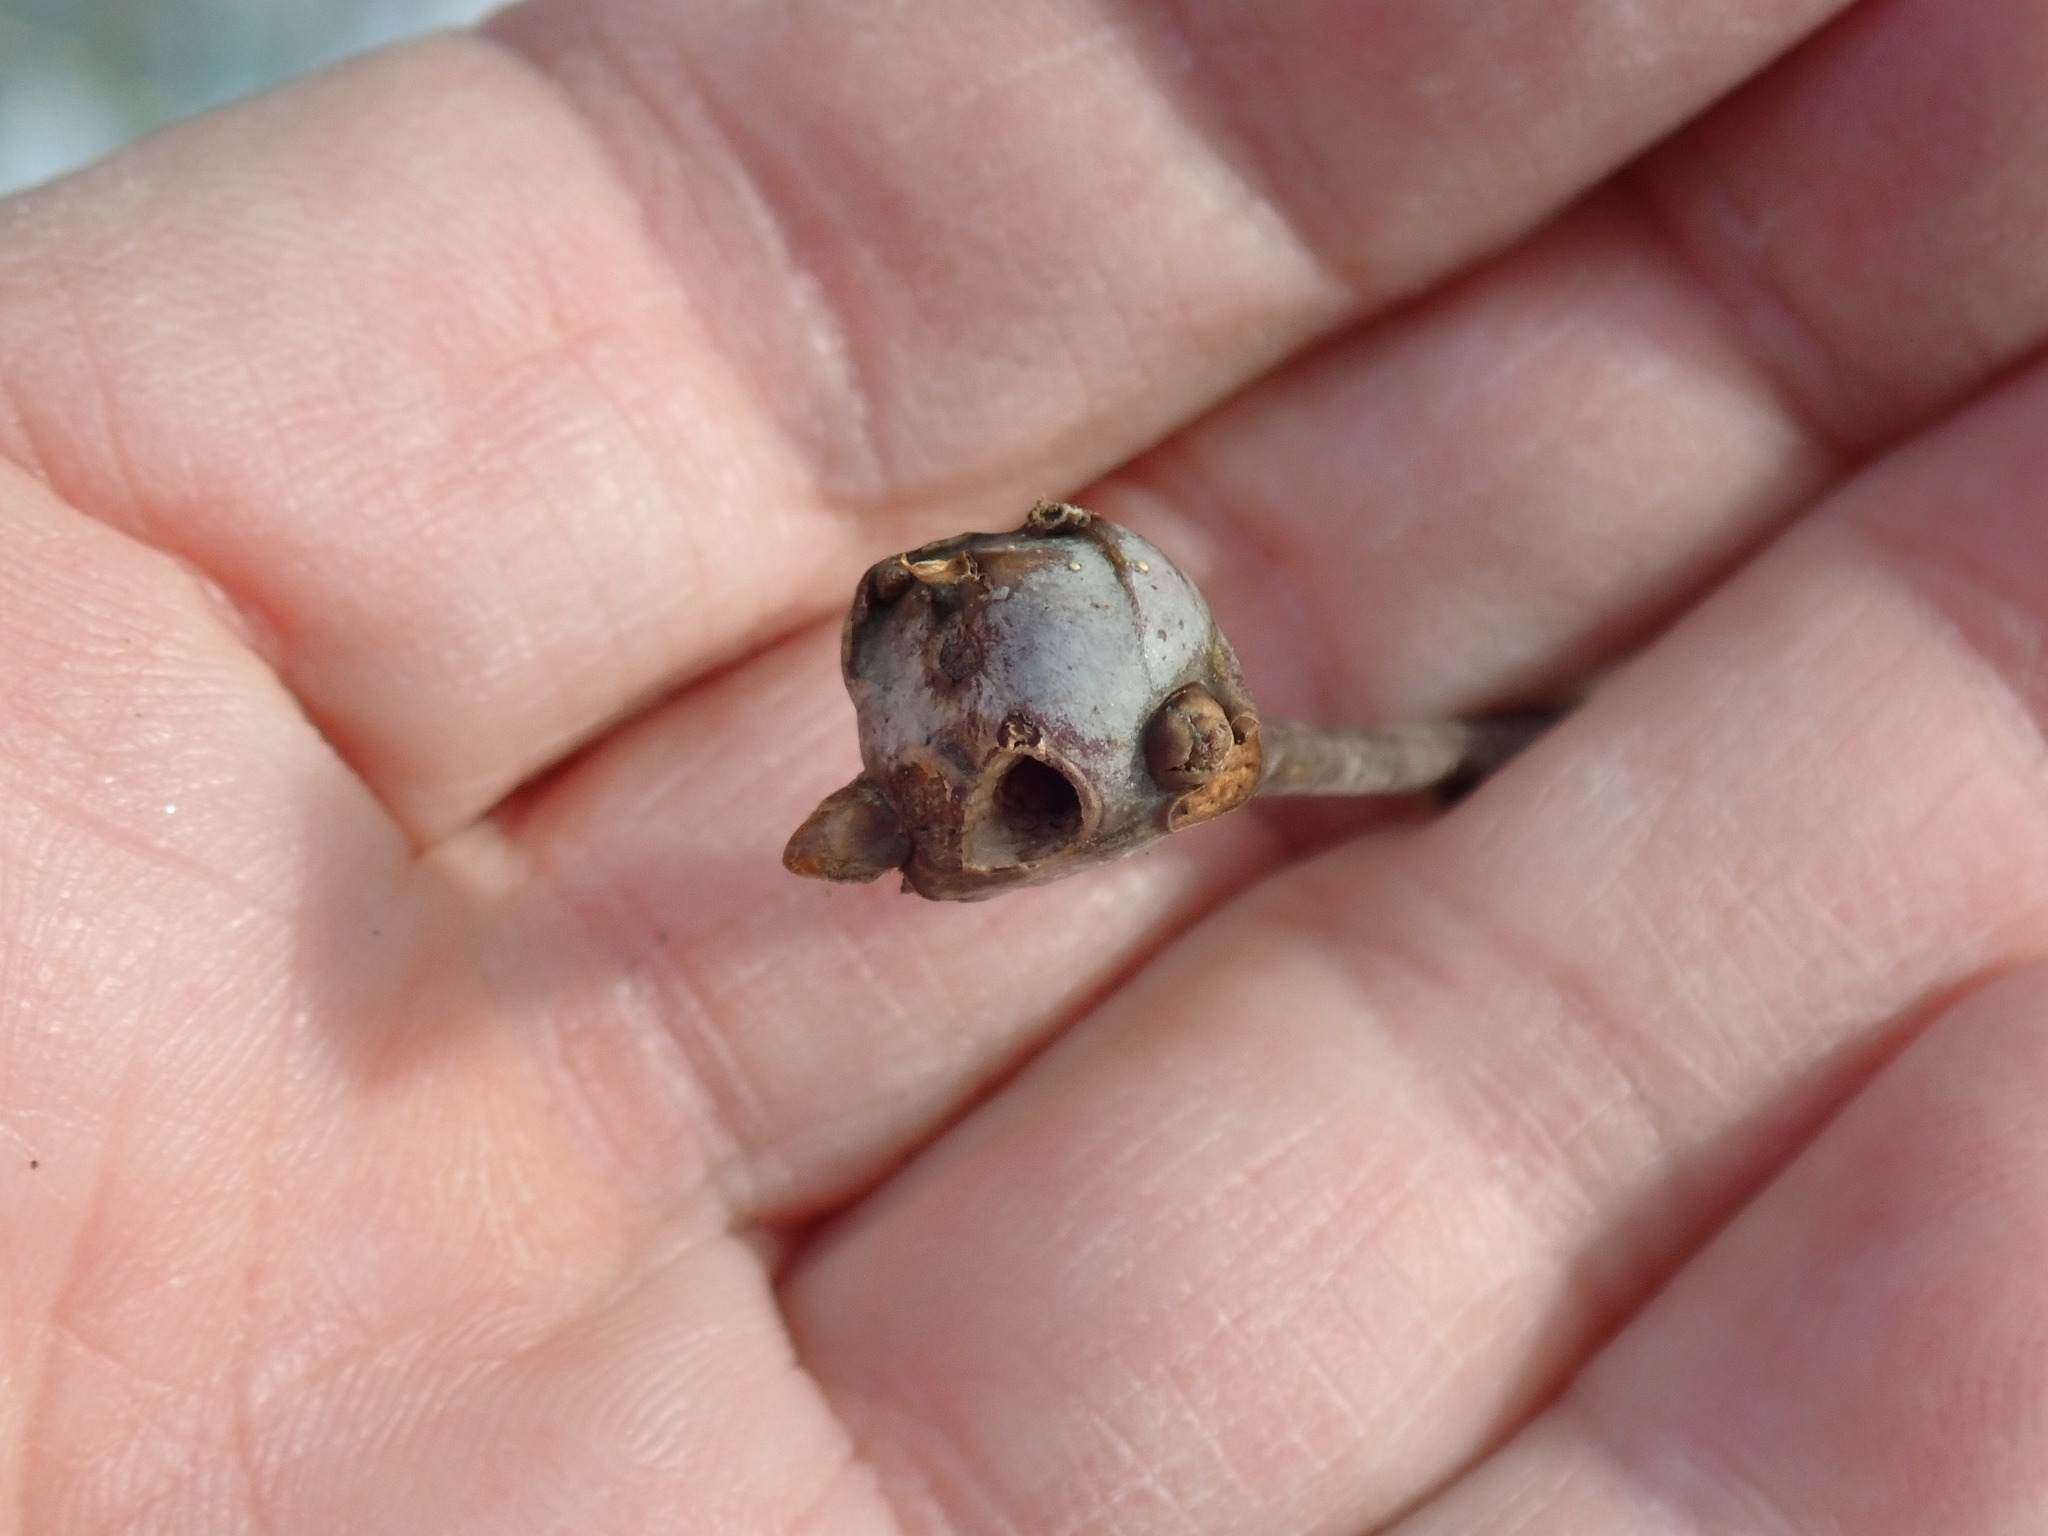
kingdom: Animalia
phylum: Arthropoda
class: Insecta
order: Hymenoptera
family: Cynipidae
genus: Callirhytis
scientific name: Callirhytis clavula
